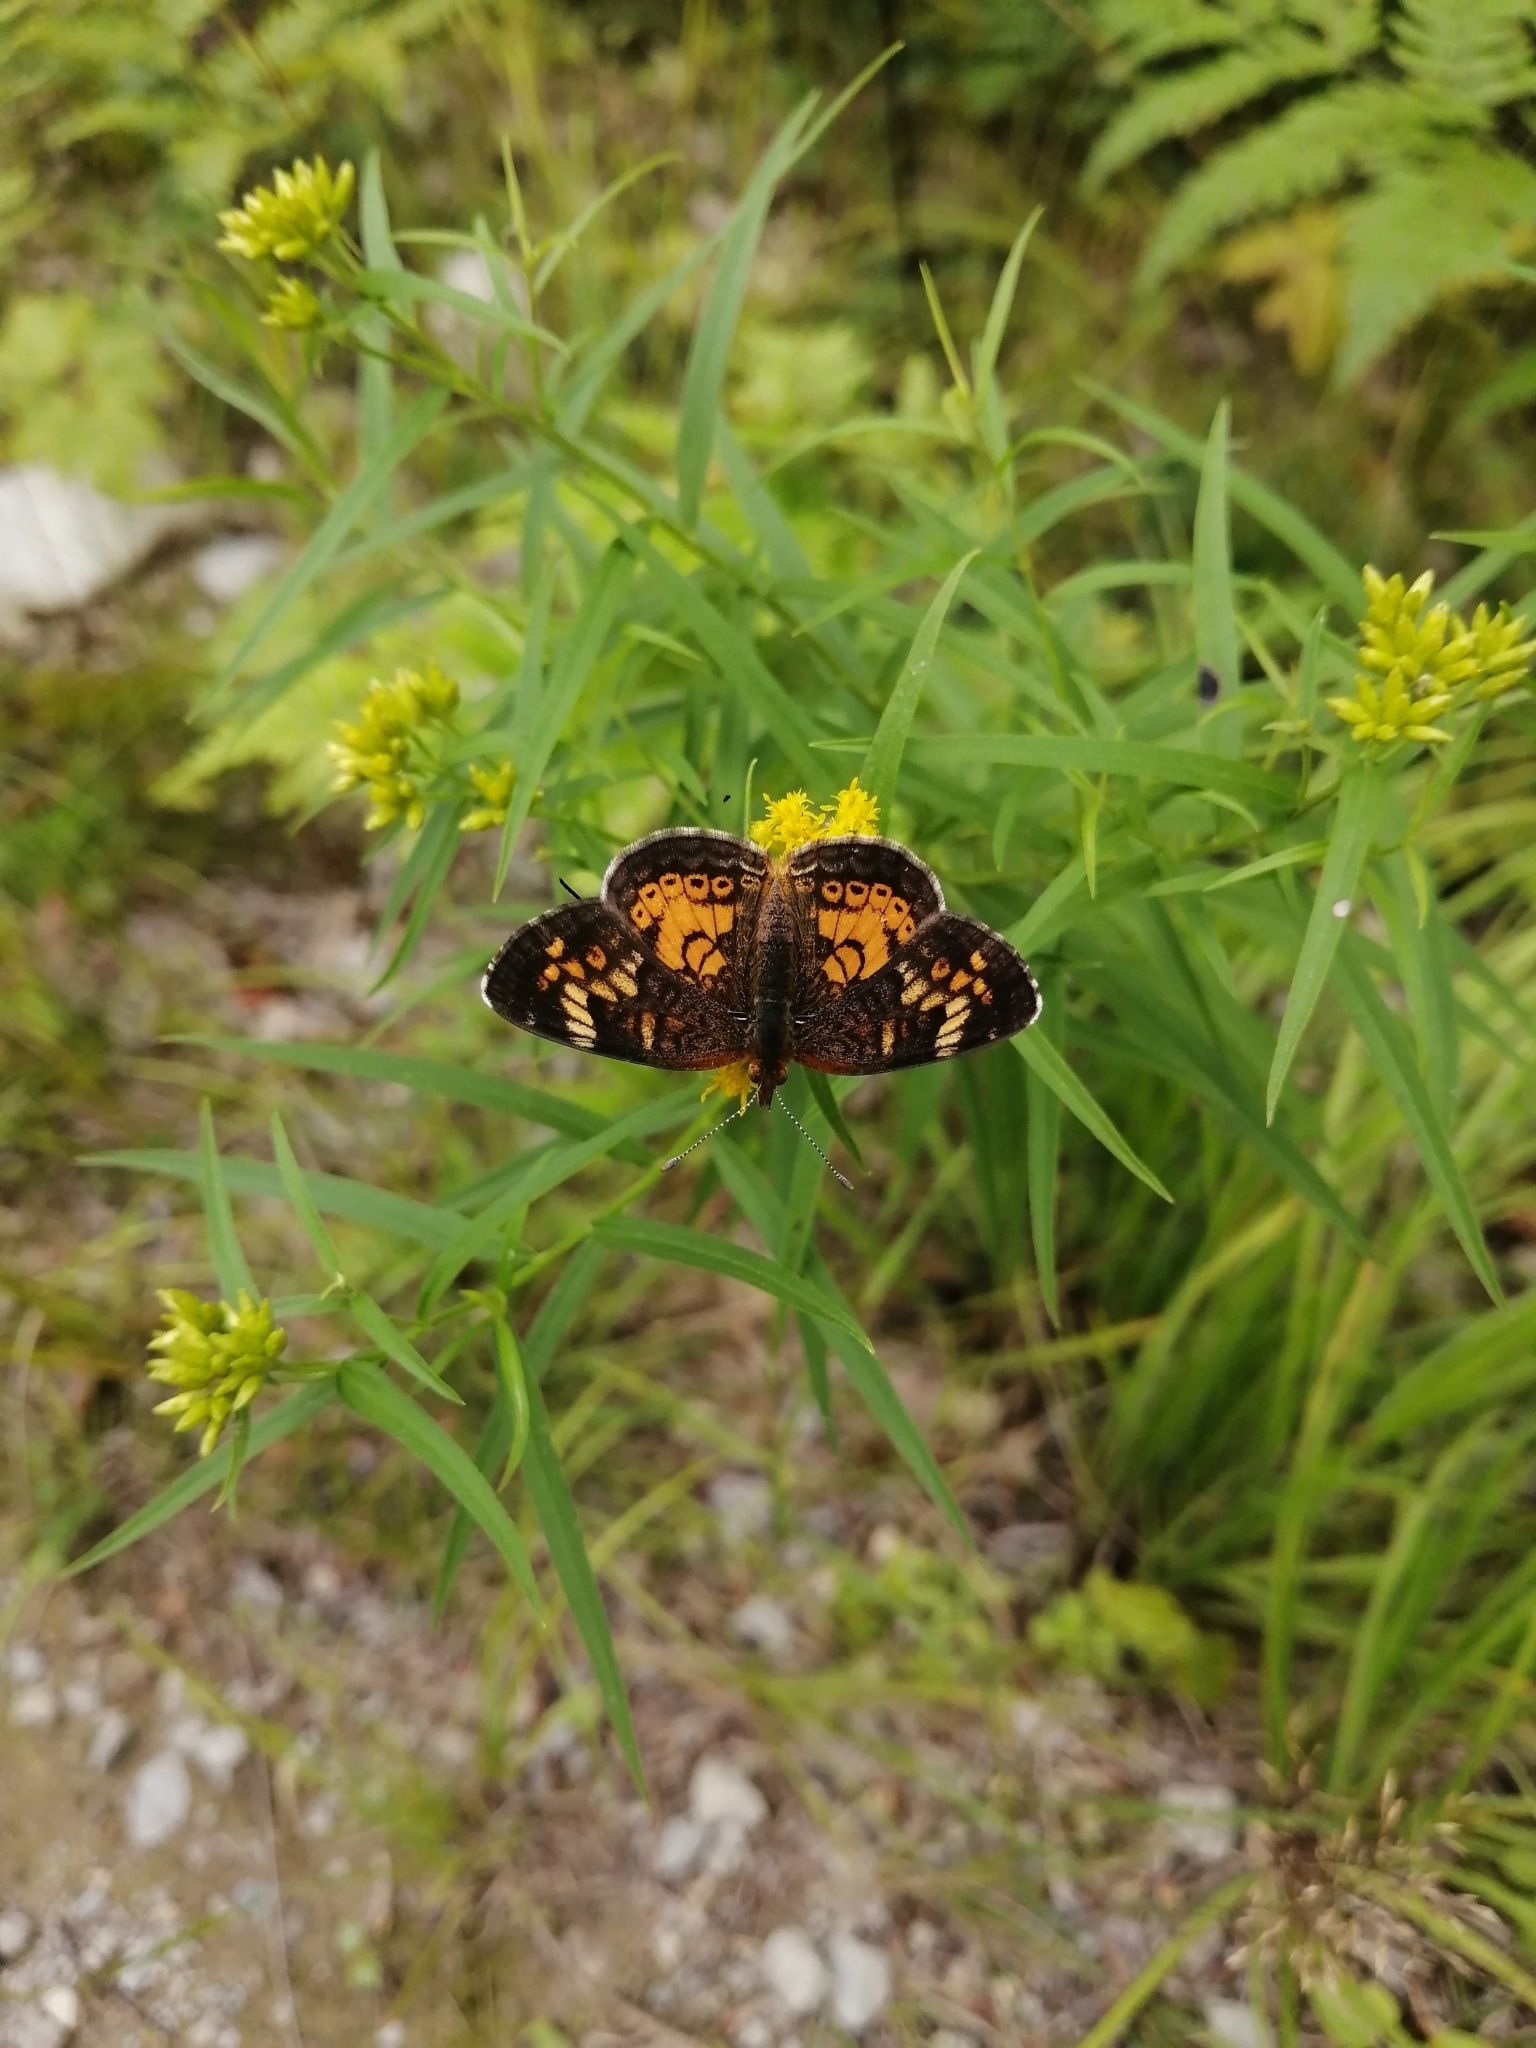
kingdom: Animalia
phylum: Arthropoda
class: Insecta
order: Lepidoptera
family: Nymphalidae
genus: Phyciodes
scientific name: Phyciodes tharos
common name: Pearl crescent
